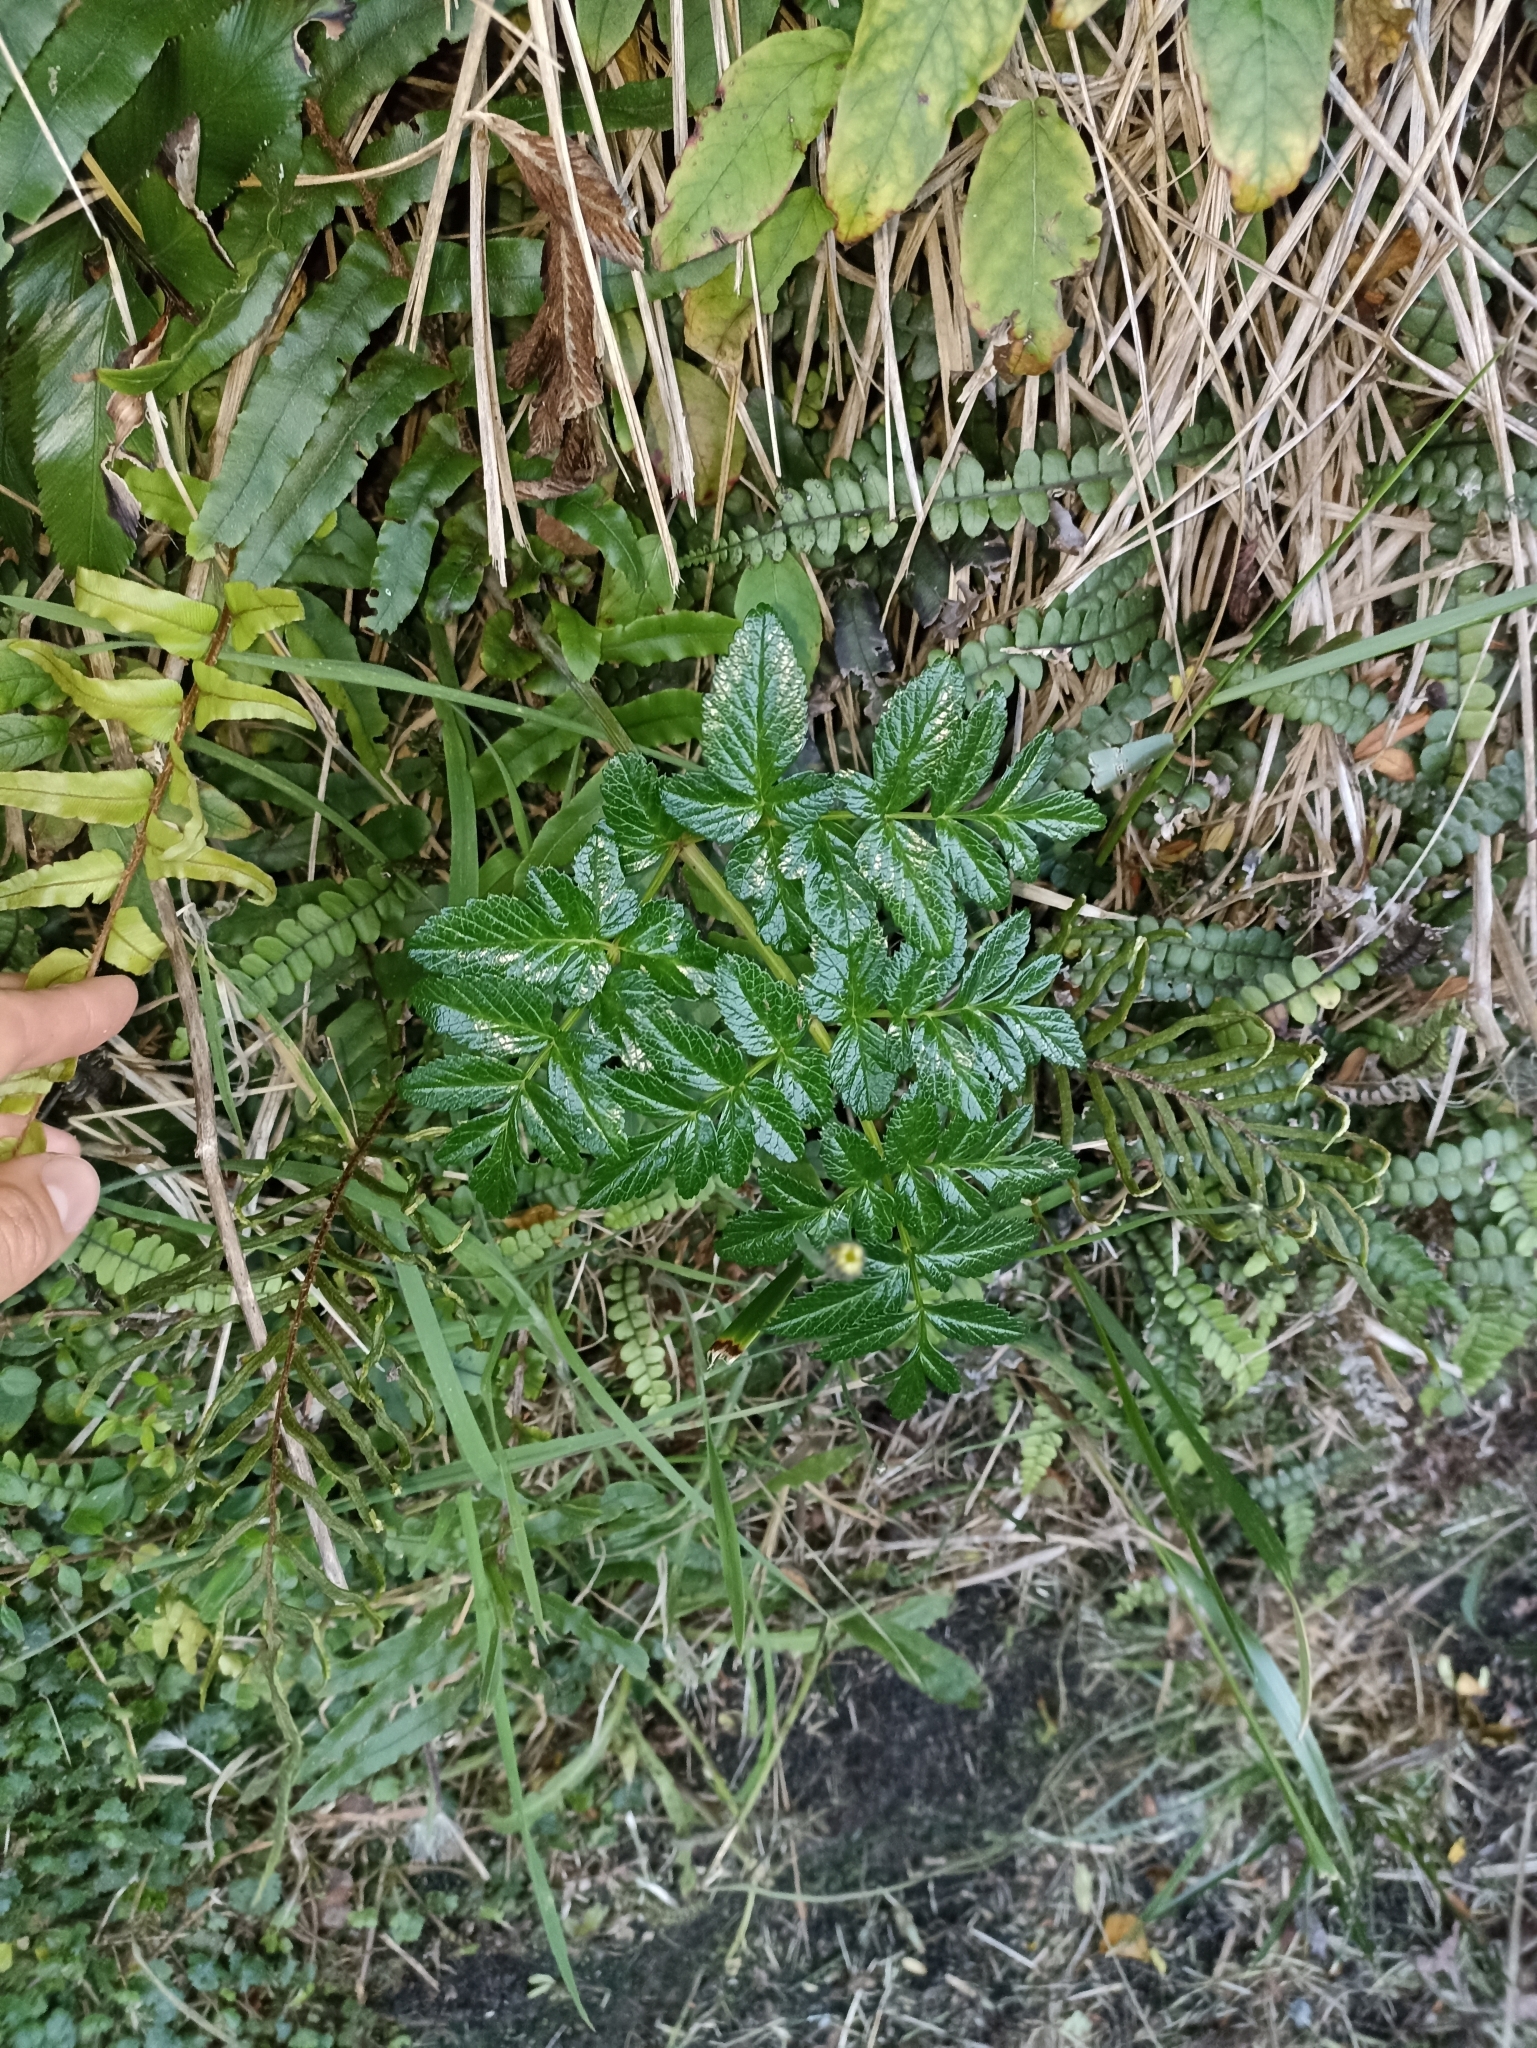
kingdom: Plantae
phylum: Tracheophyta
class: Magnoliopsida
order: Apiales
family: Apiaceae
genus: Angelica
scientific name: Angelica pachycarpa
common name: Portuguese angelica
